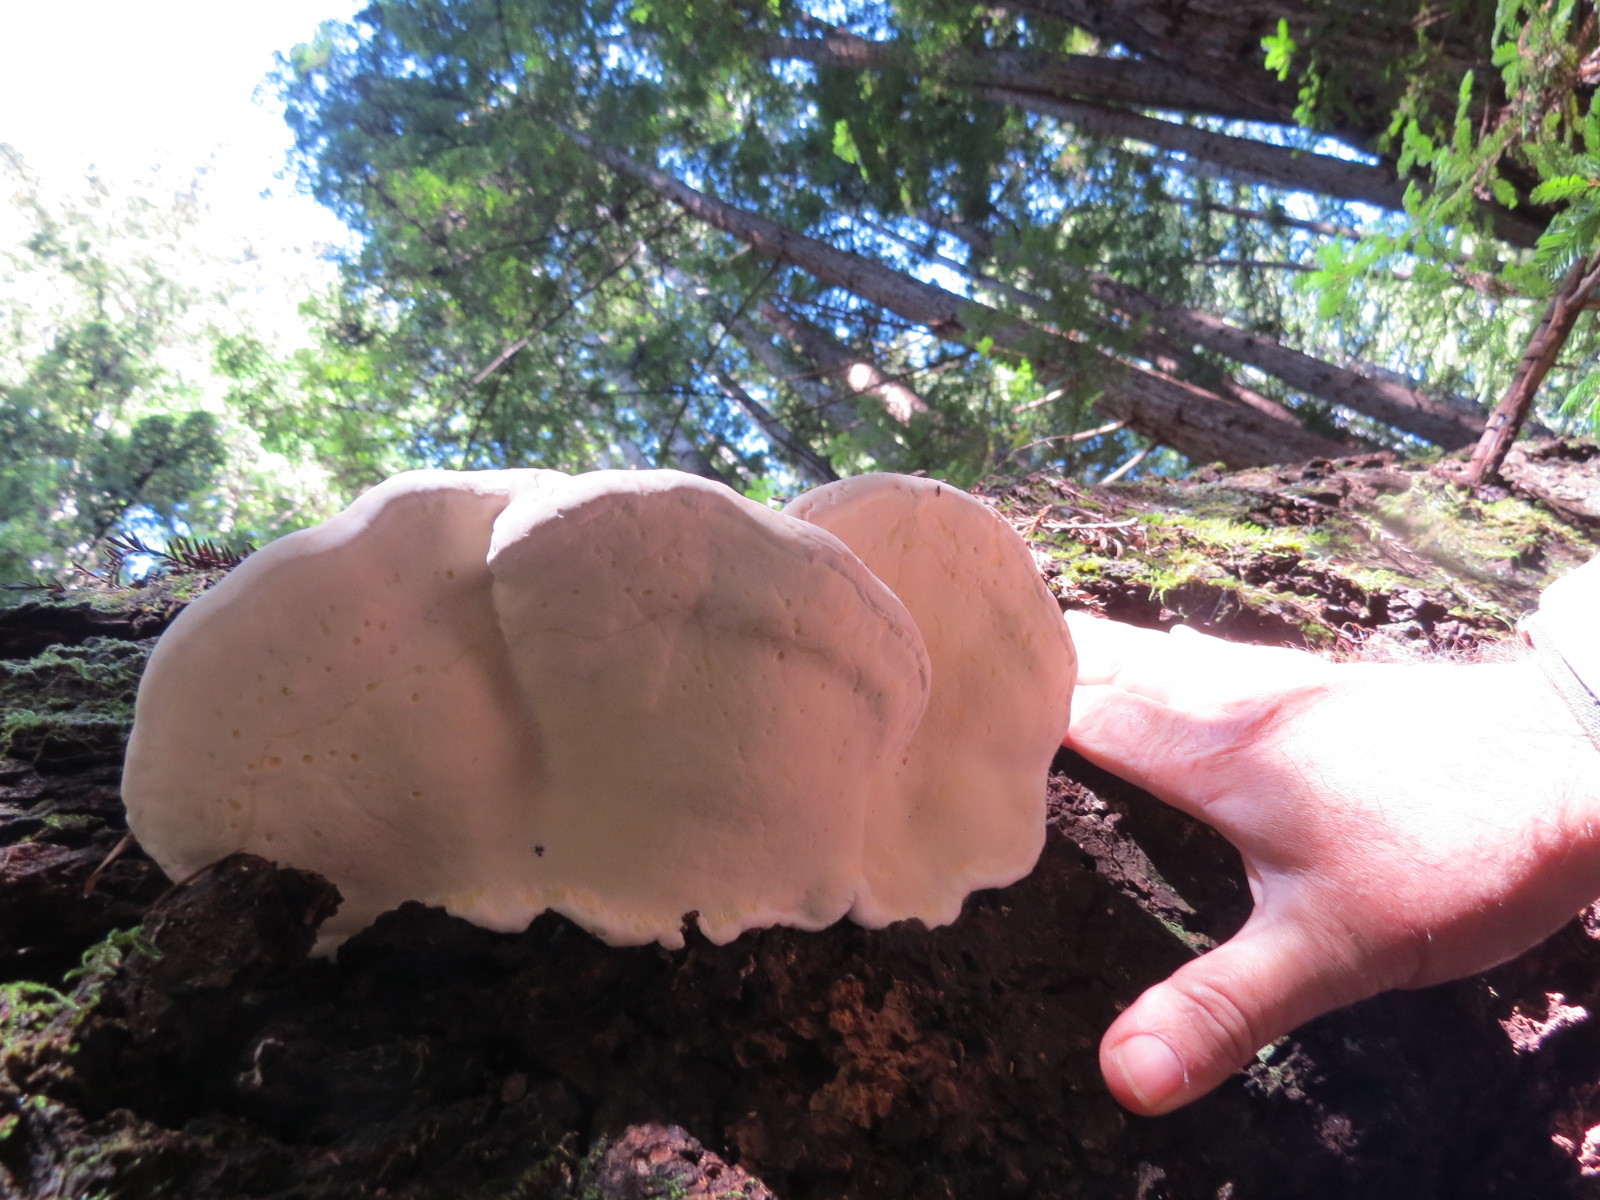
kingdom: Fungi
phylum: Basidiomycota
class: Agaricomycetes
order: Polyporales
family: Fomitopsidaceae
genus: Fomitopsis
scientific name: Fomitopsis mounceae
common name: Northern red belt
